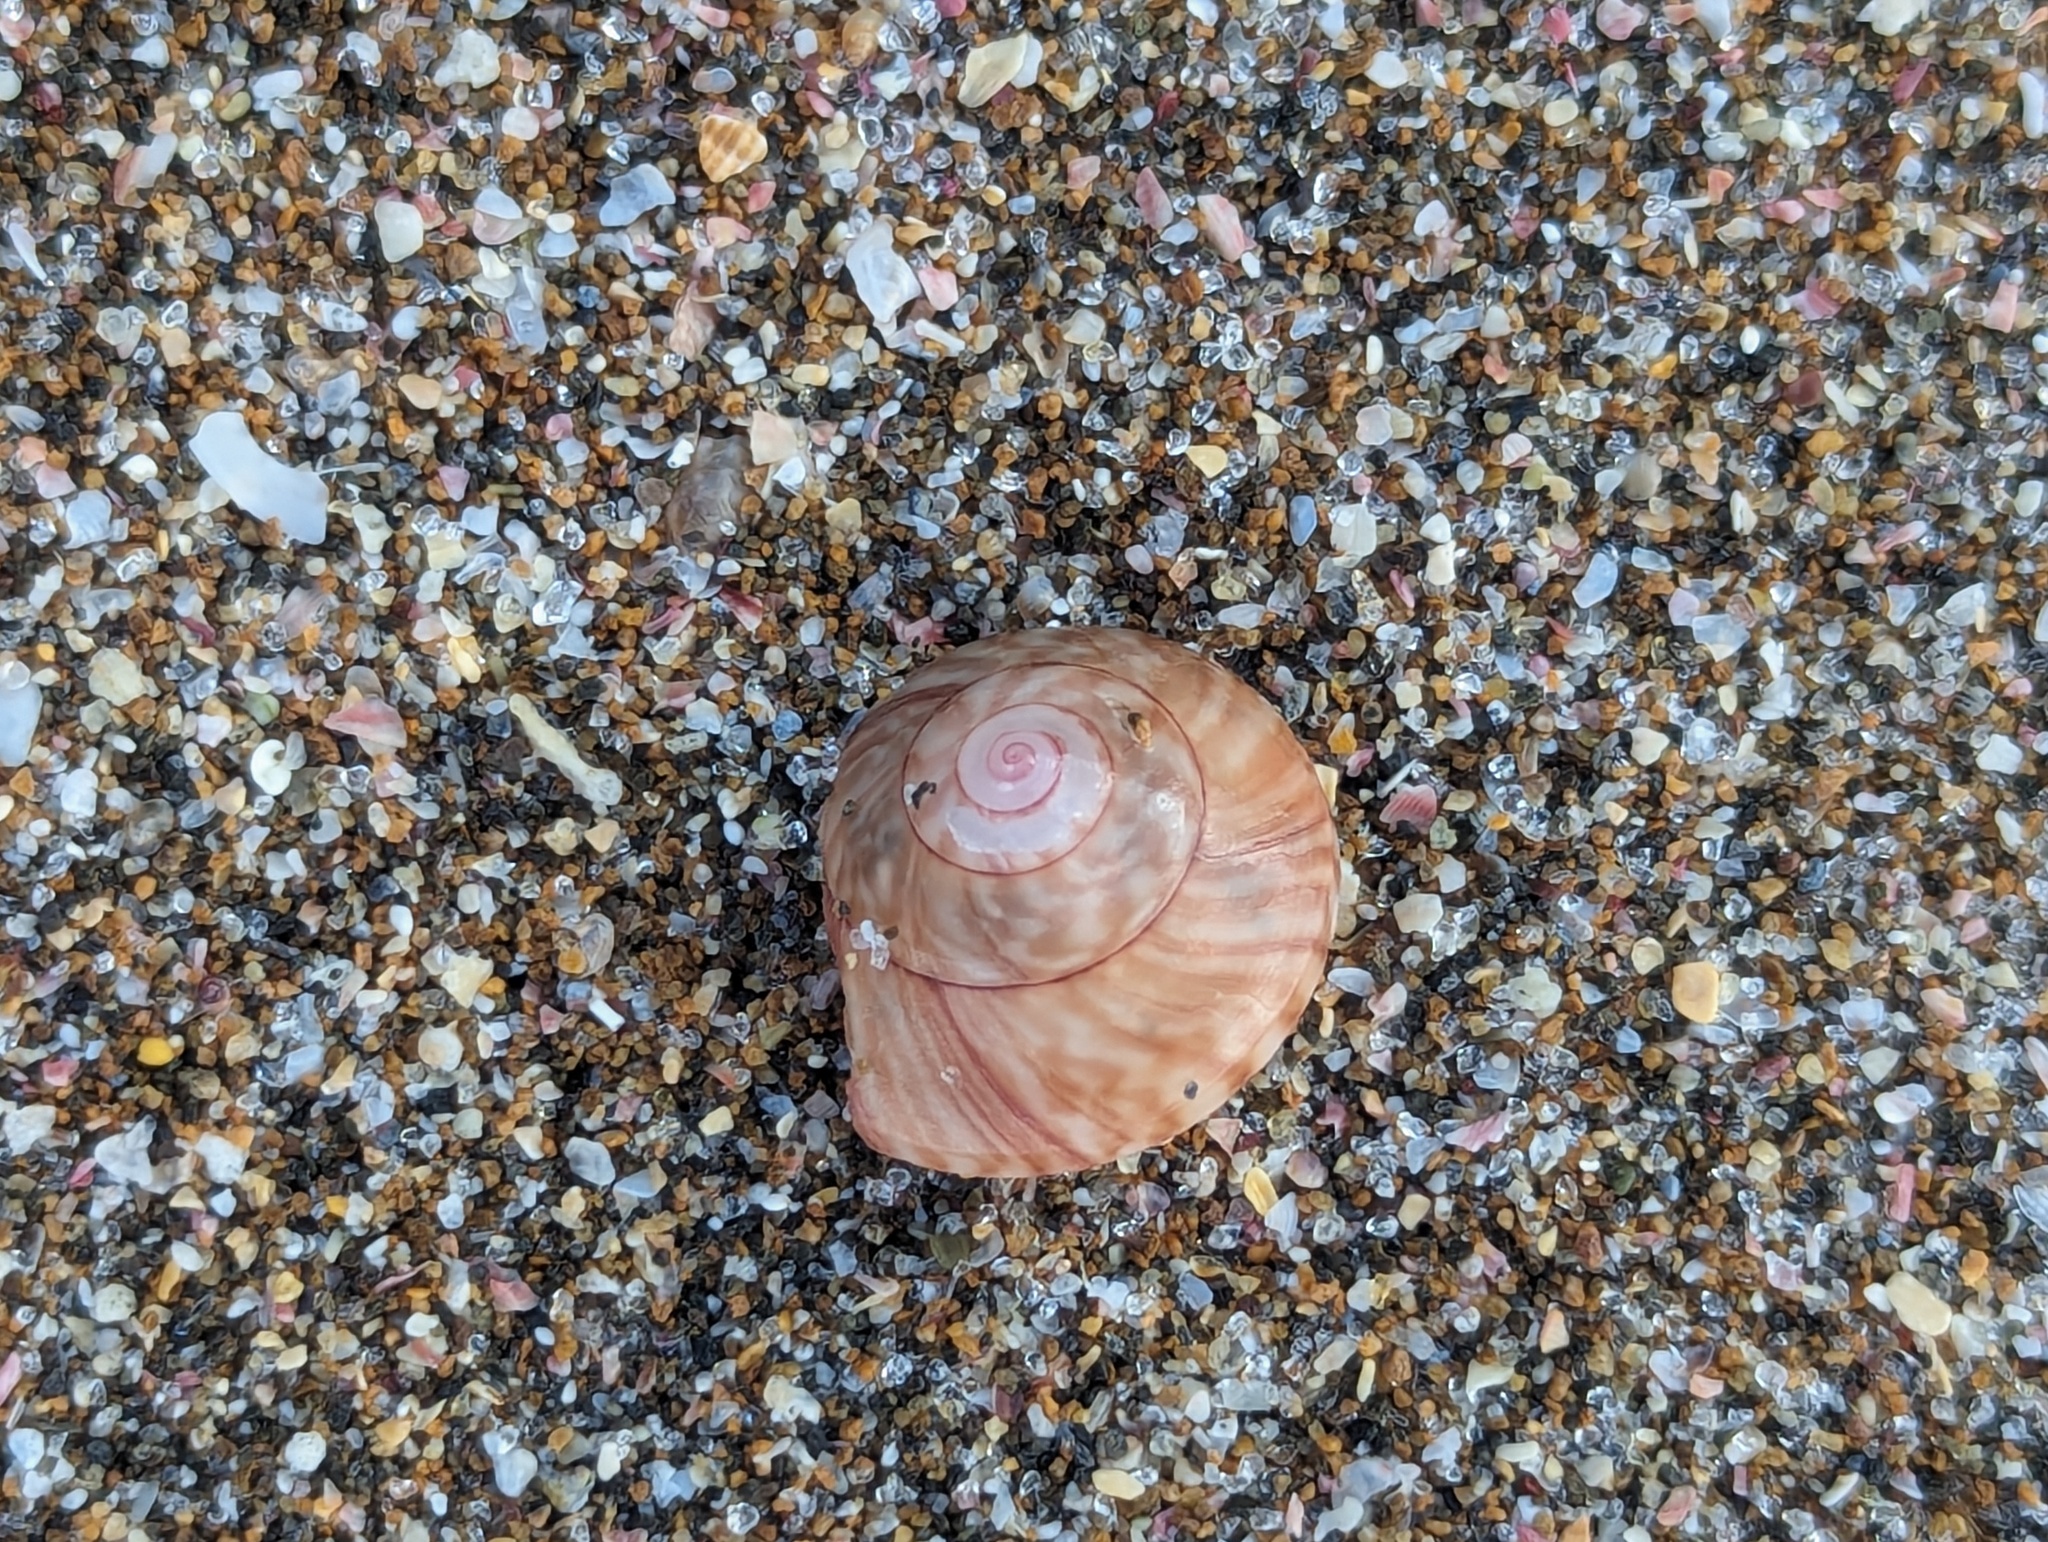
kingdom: Animalia
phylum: Mollusca
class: Gastropoda
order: Trochida
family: Trochidae
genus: Zethalia
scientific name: Zethalia zelandica
